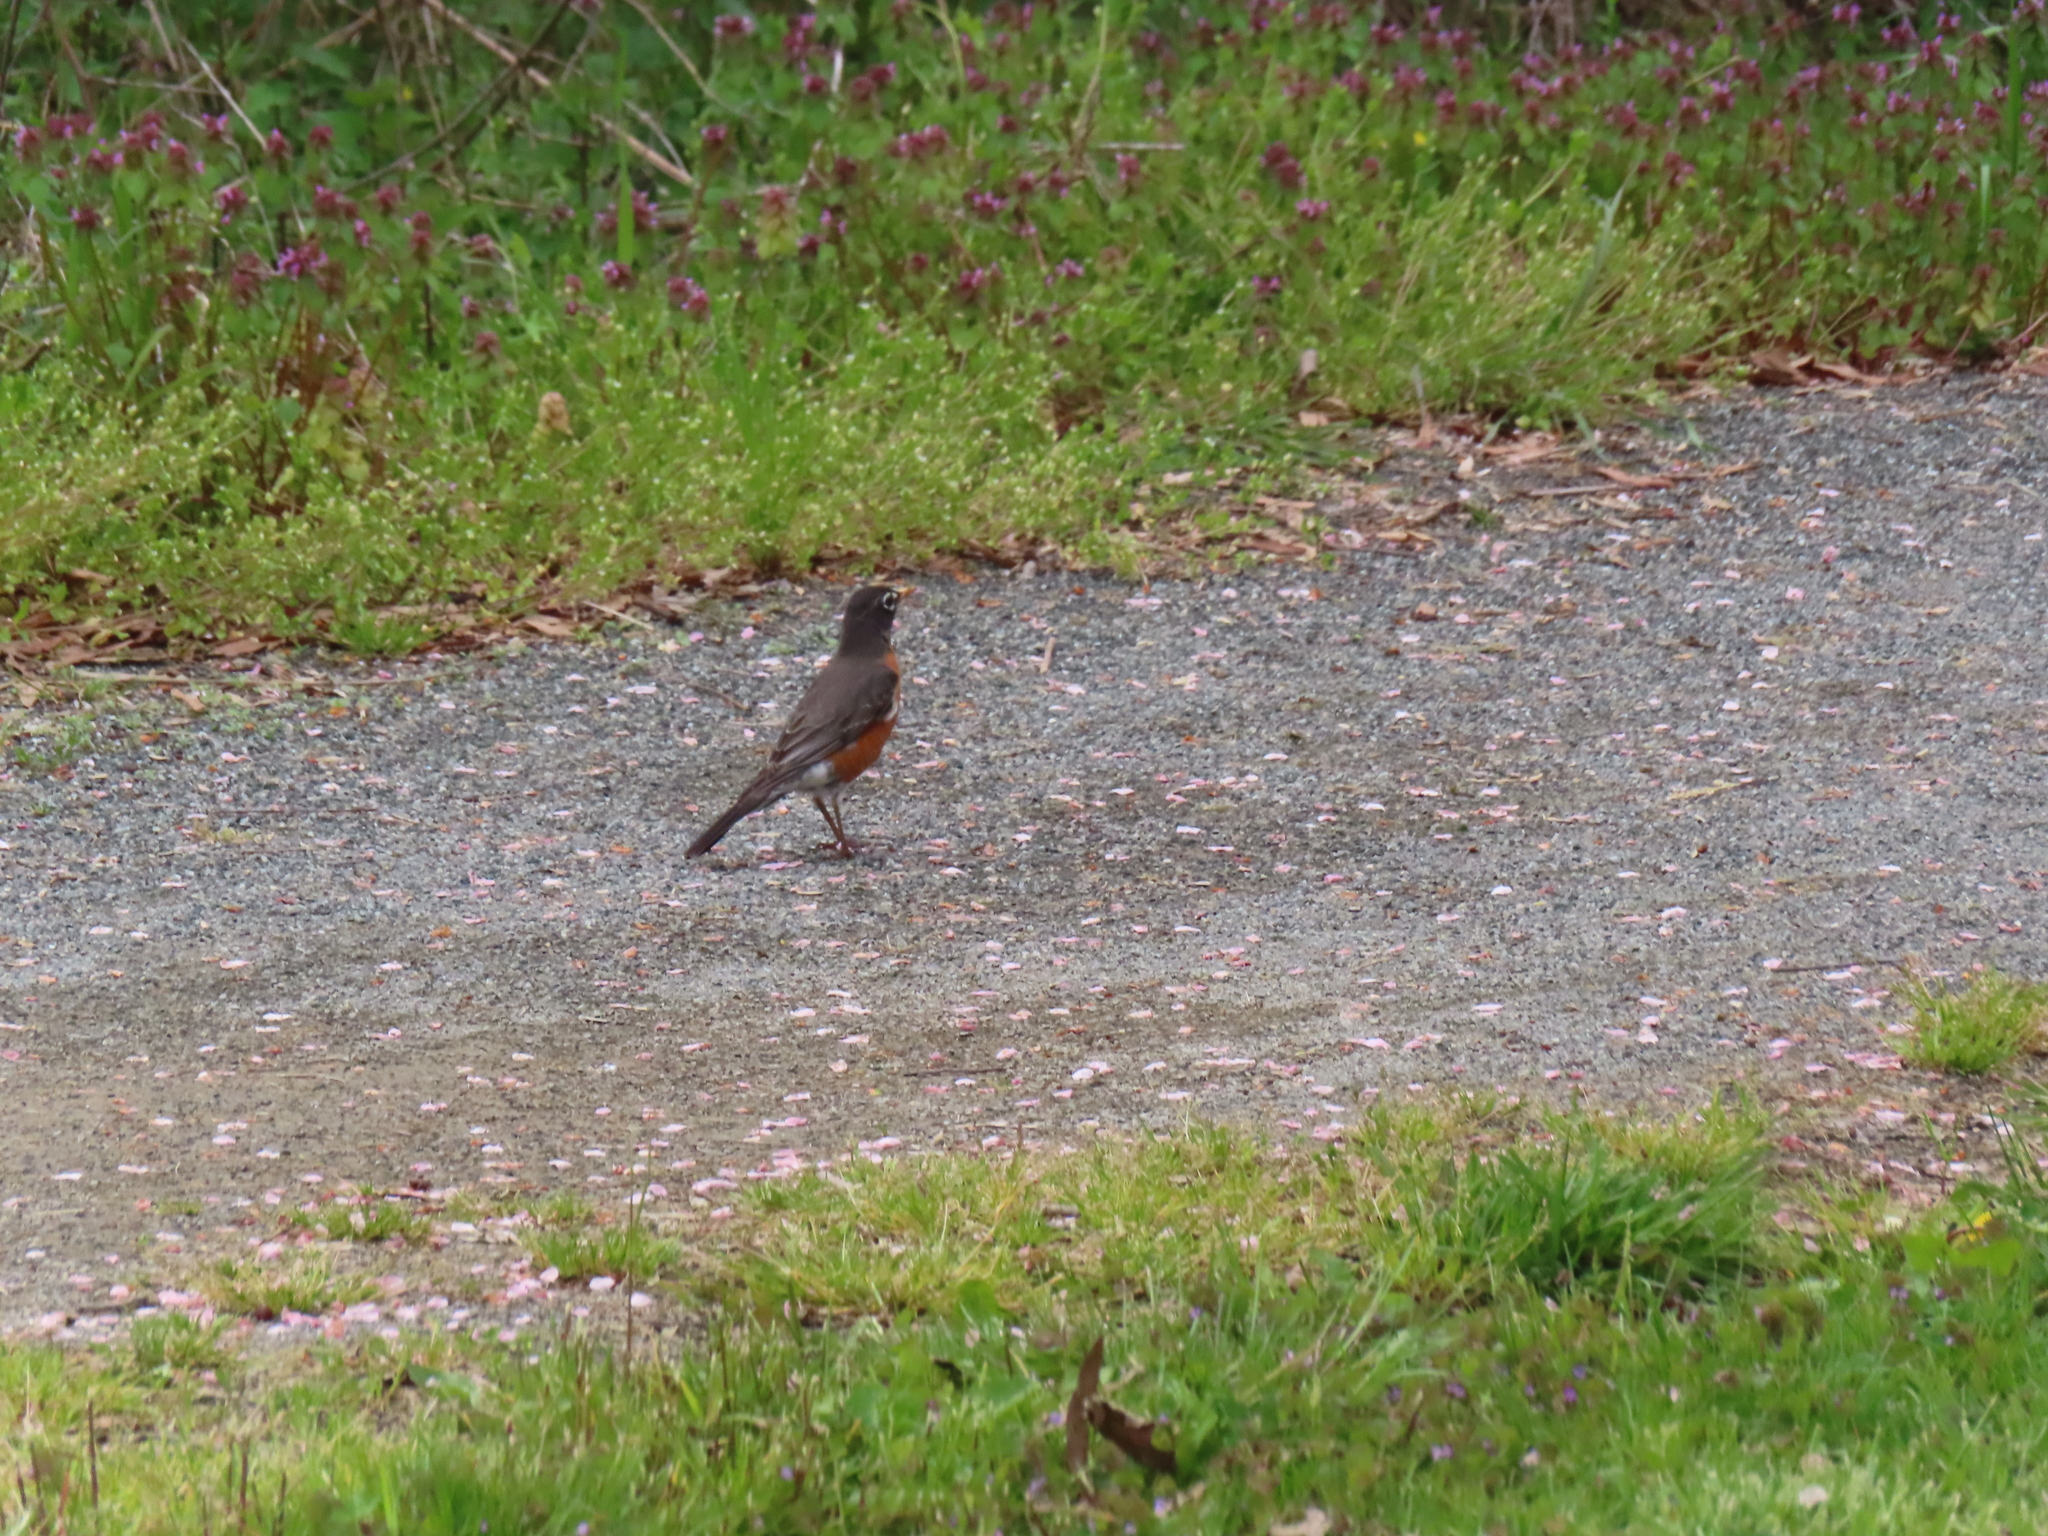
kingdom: Animalia
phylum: Chordata
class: Aves
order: Passeriformes
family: Turdidae
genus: Turdus
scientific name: Turdus migratorius
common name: American robin
